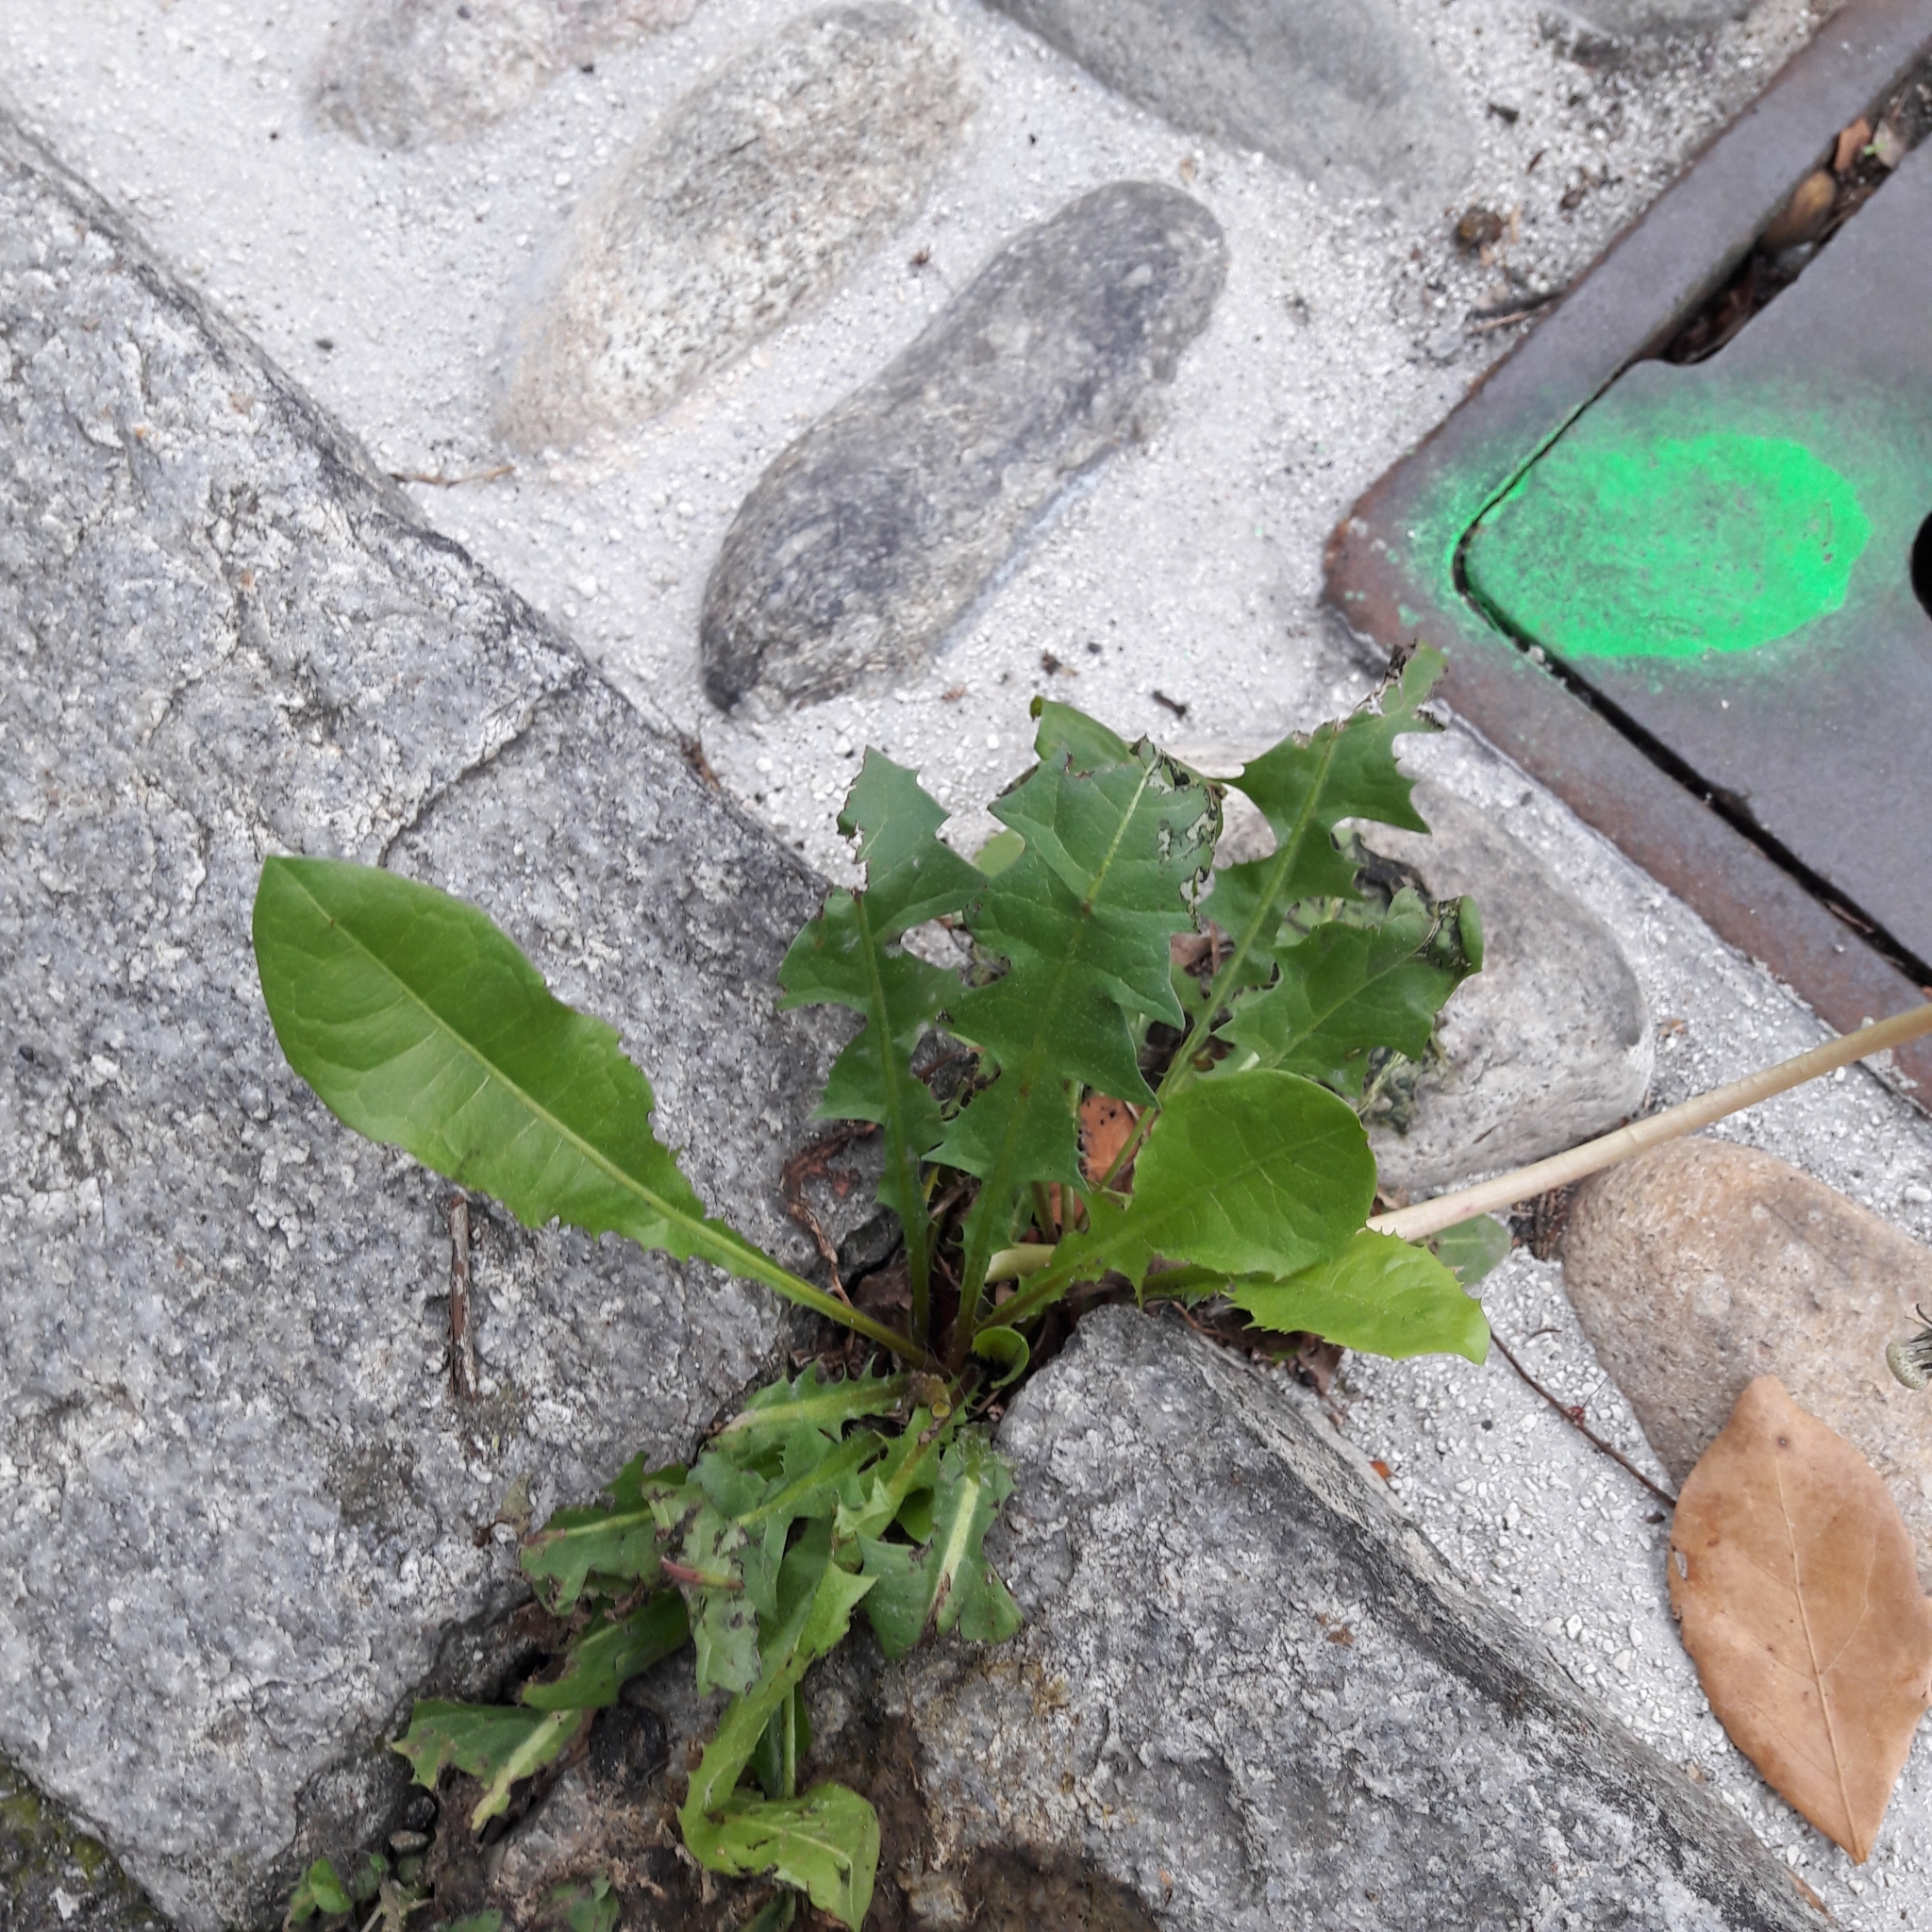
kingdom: Plantae
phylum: Tracheophyta
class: Magnoliopsida
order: Asterales
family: Asteraceae
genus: Taraxacum
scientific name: Taraxacum officinale
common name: Common dandelion
